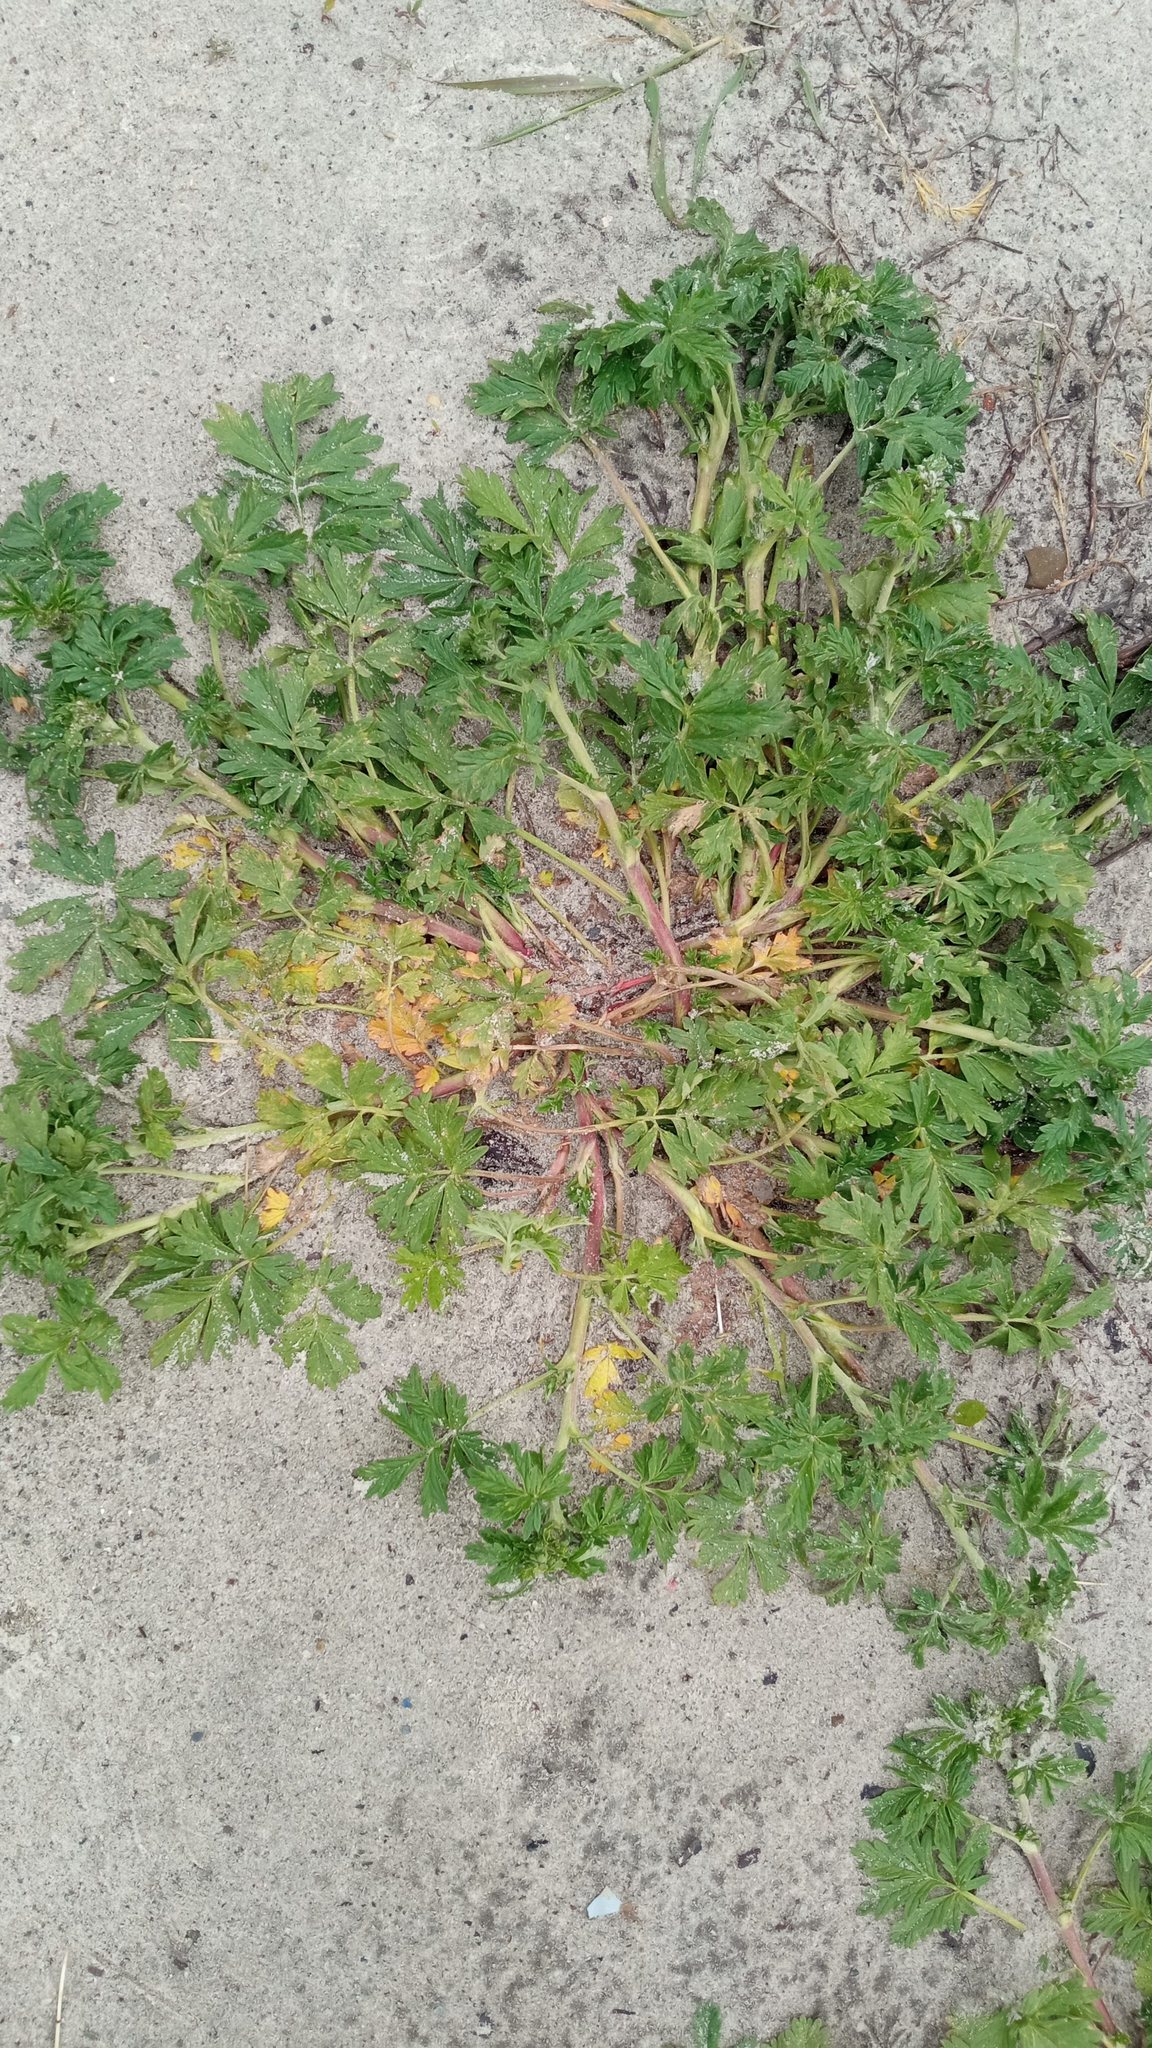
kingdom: Plantae
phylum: Tracheophyta
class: Magnoliopsida
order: Rosales
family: Rosaceae
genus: Potentilla
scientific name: Potentilla supina
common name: Prostrate cinquefoil
